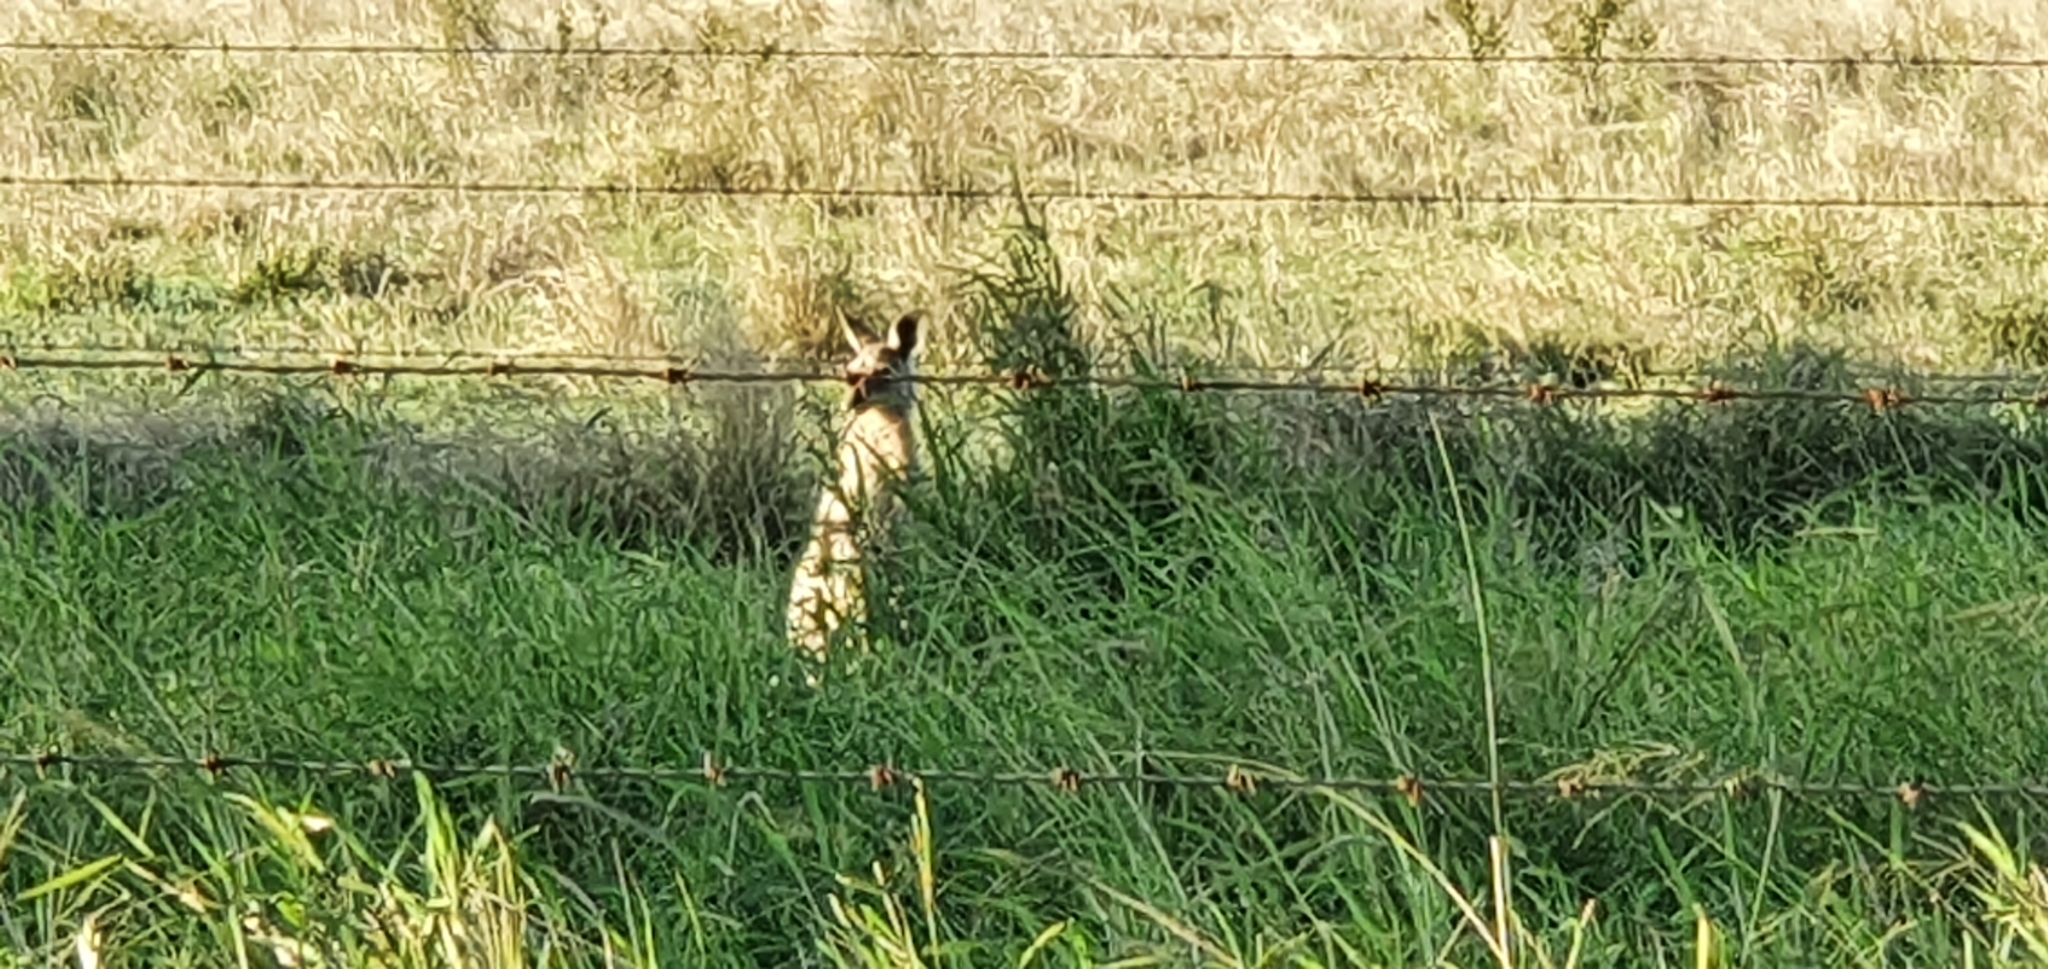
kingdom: Animalia
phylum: Chordata
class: Mammalia
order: Diprotodontia
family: Macropodidae
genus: Macropus
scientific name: Macropus giganteus
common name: Eastern grey kangaroo
